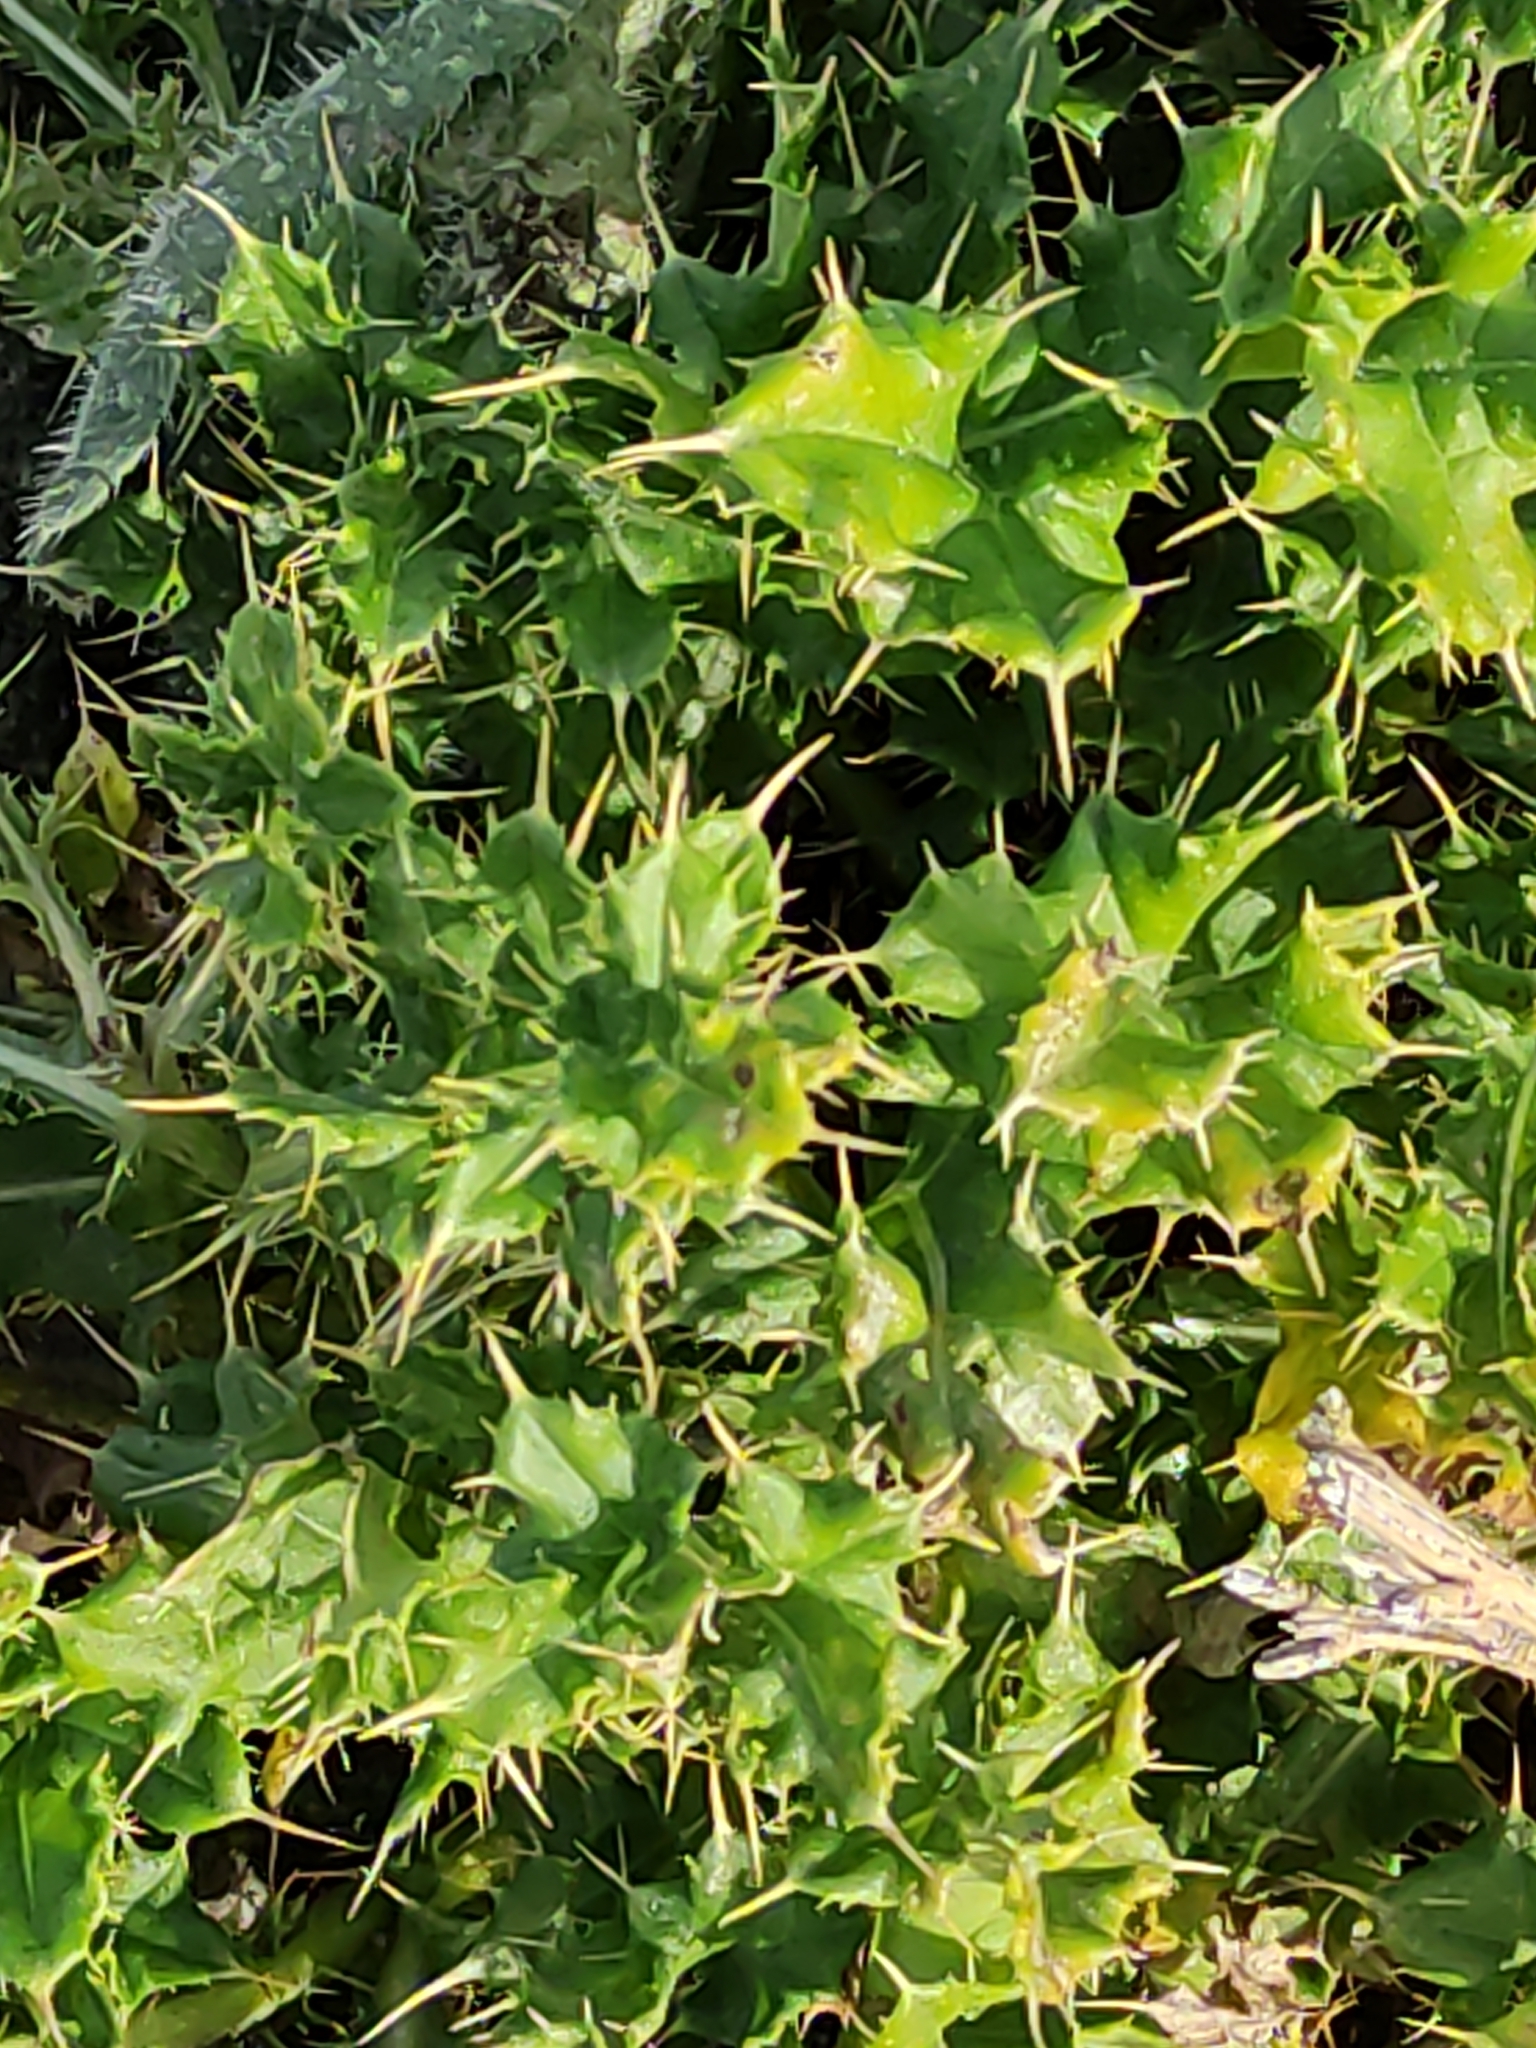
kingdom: Plantae
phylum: Tracheophyta
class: Magnoliopsida
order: Asterales
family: Asteraceae
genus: Cirsium
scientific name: Cirsium arvense
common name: Creeping thistle
